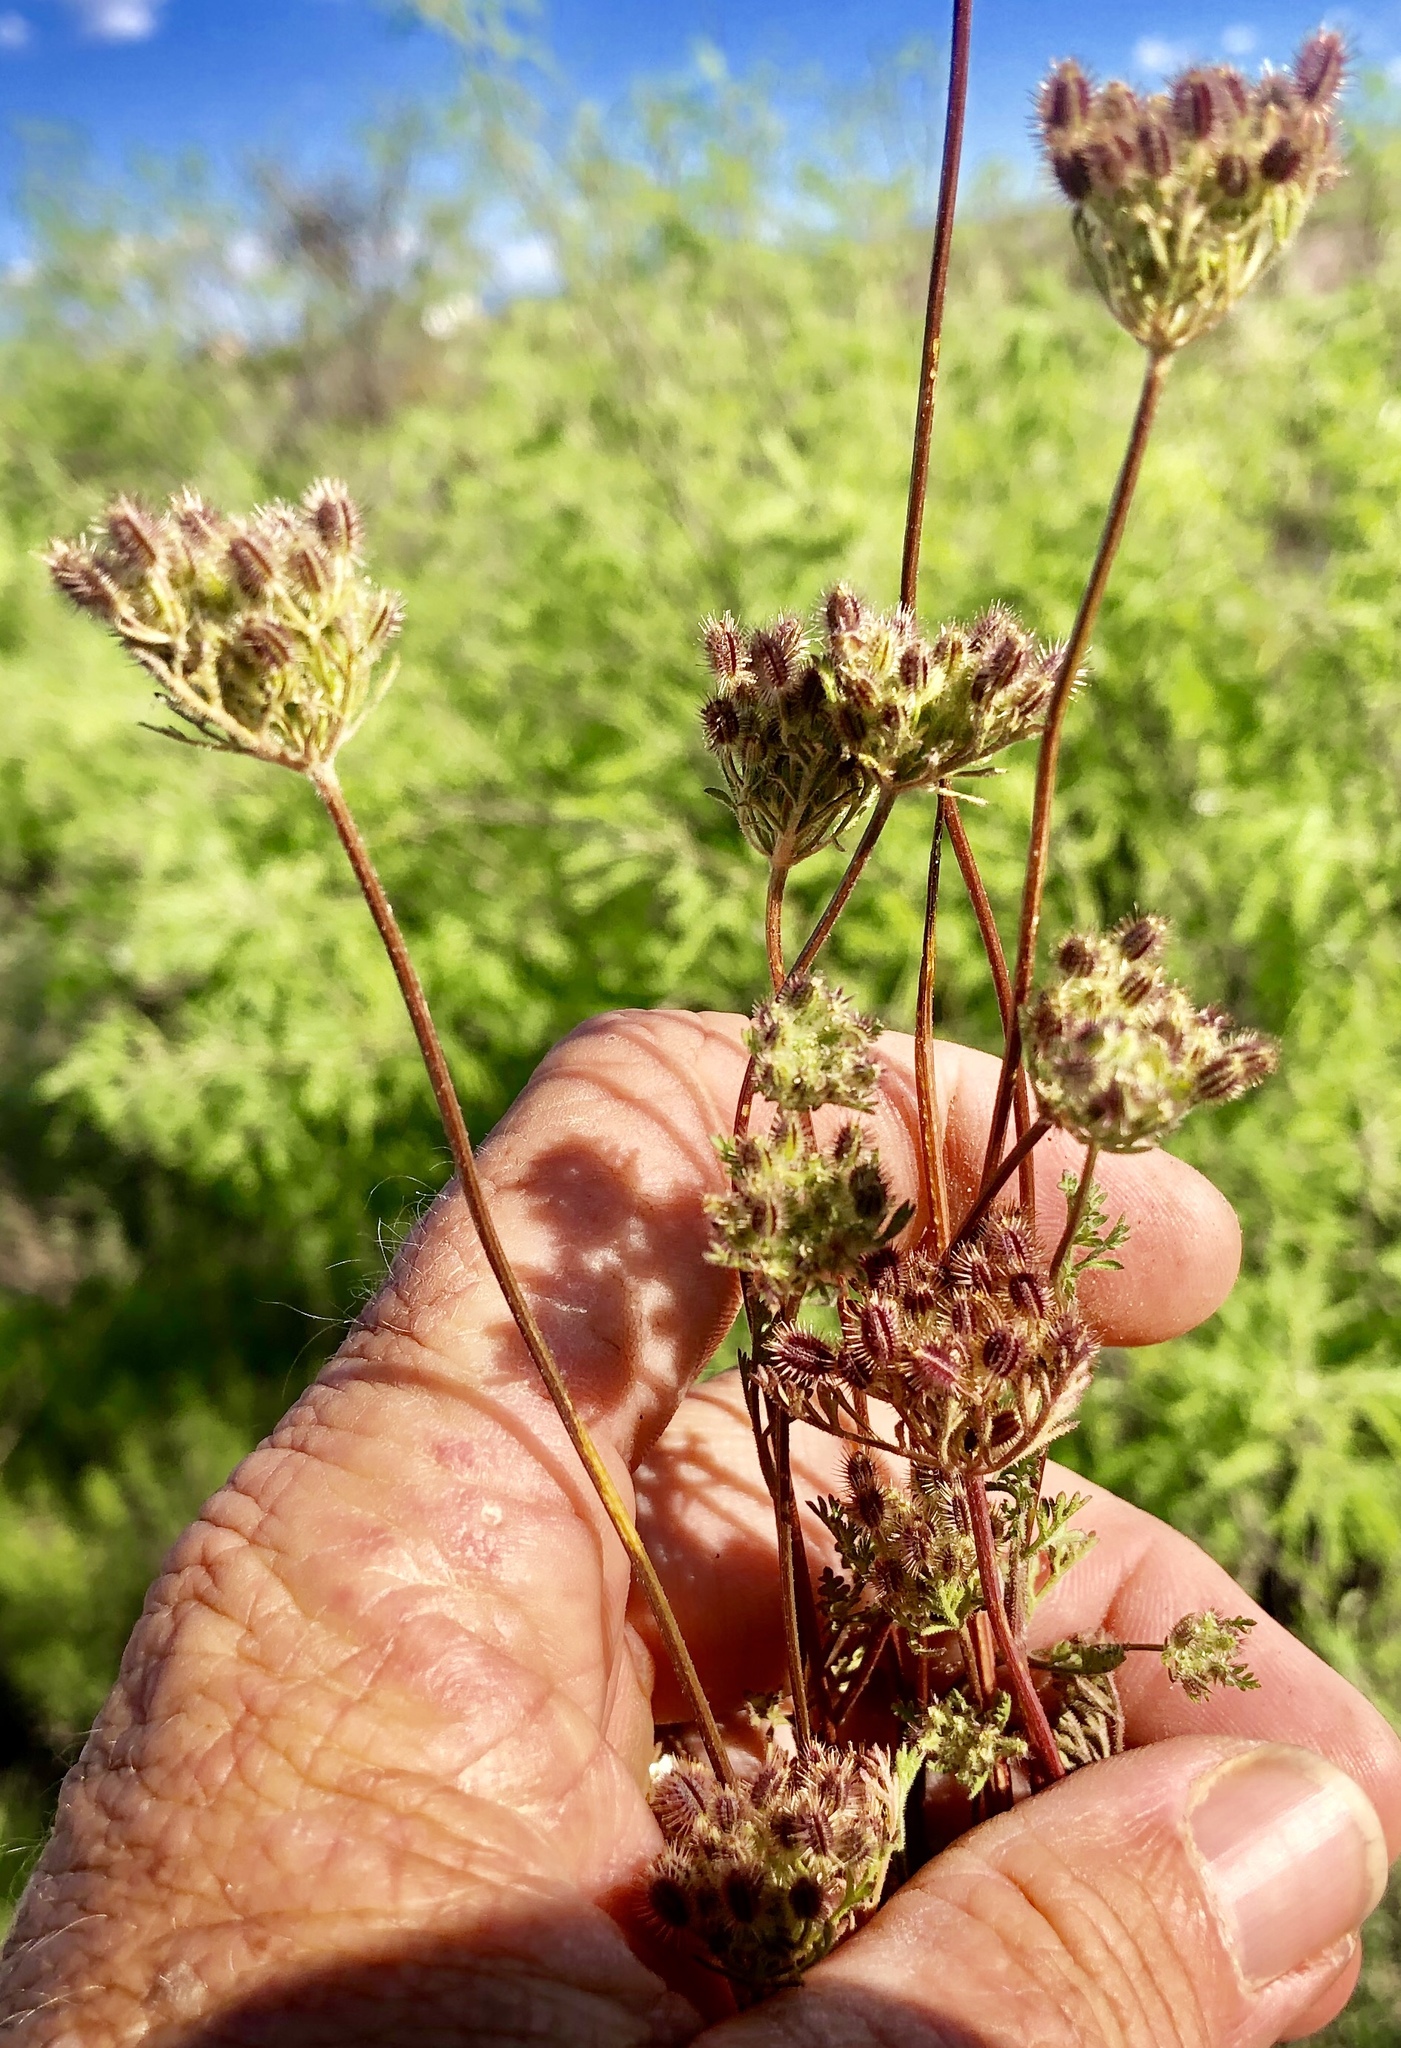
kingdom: Plantae
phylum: Tracheophyta
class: Magnoliopsida
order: Apiales
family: Apiaceae
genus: Daucus
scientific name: Daucus pusillus
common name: Southwest wild carrot
